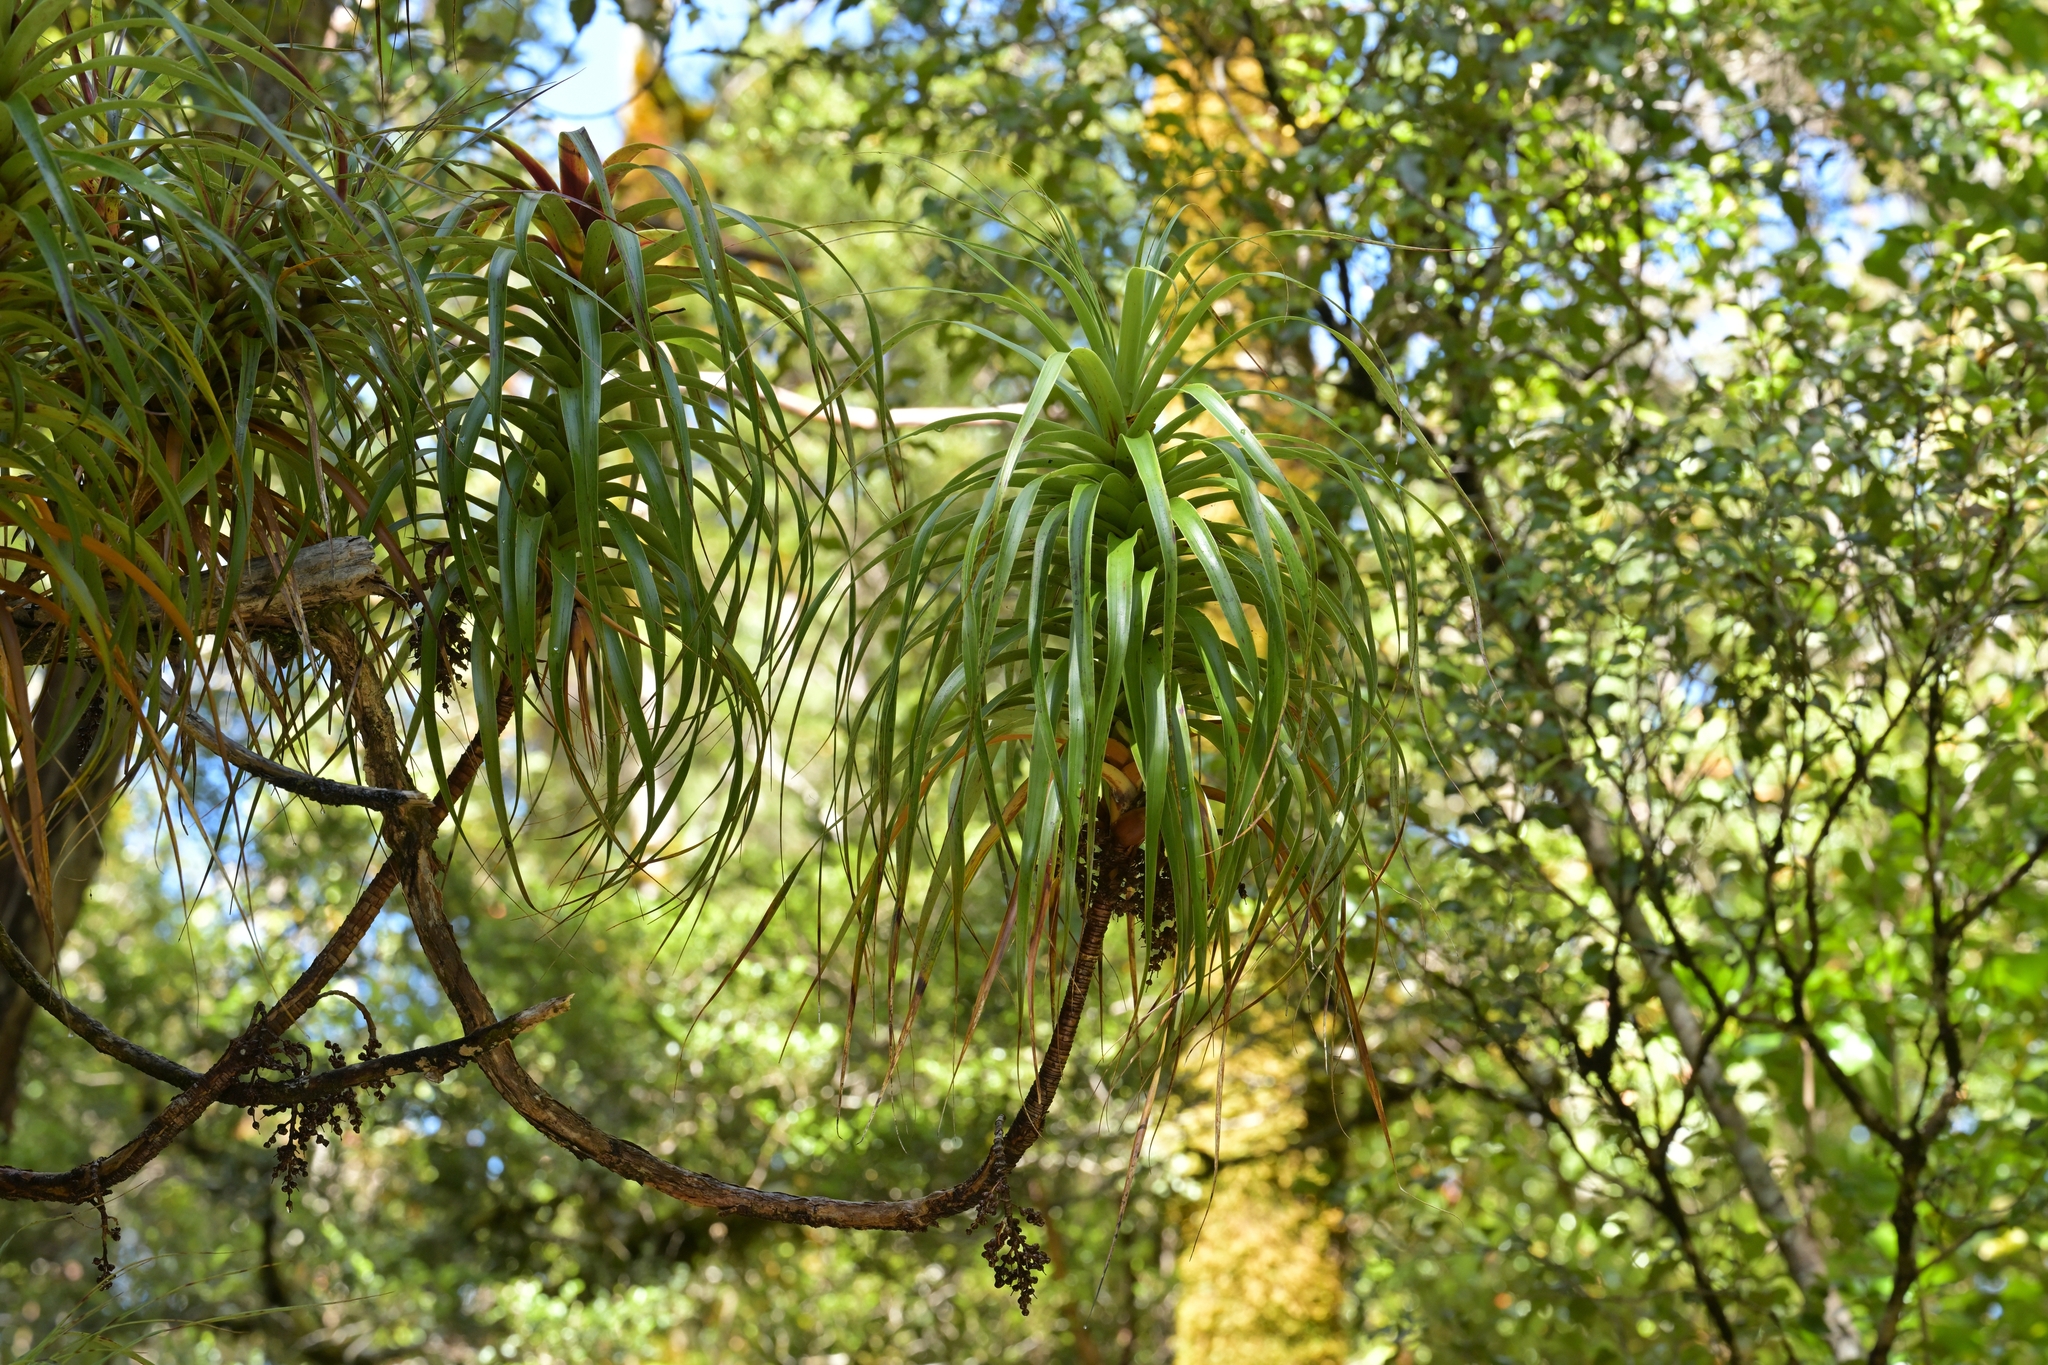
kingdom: Plantae
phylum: Tracheophyta
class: Magnoliopsida
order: Ericales
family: Ericaceae
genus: Dracophyllum
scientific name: Dracophyllum townsonii
